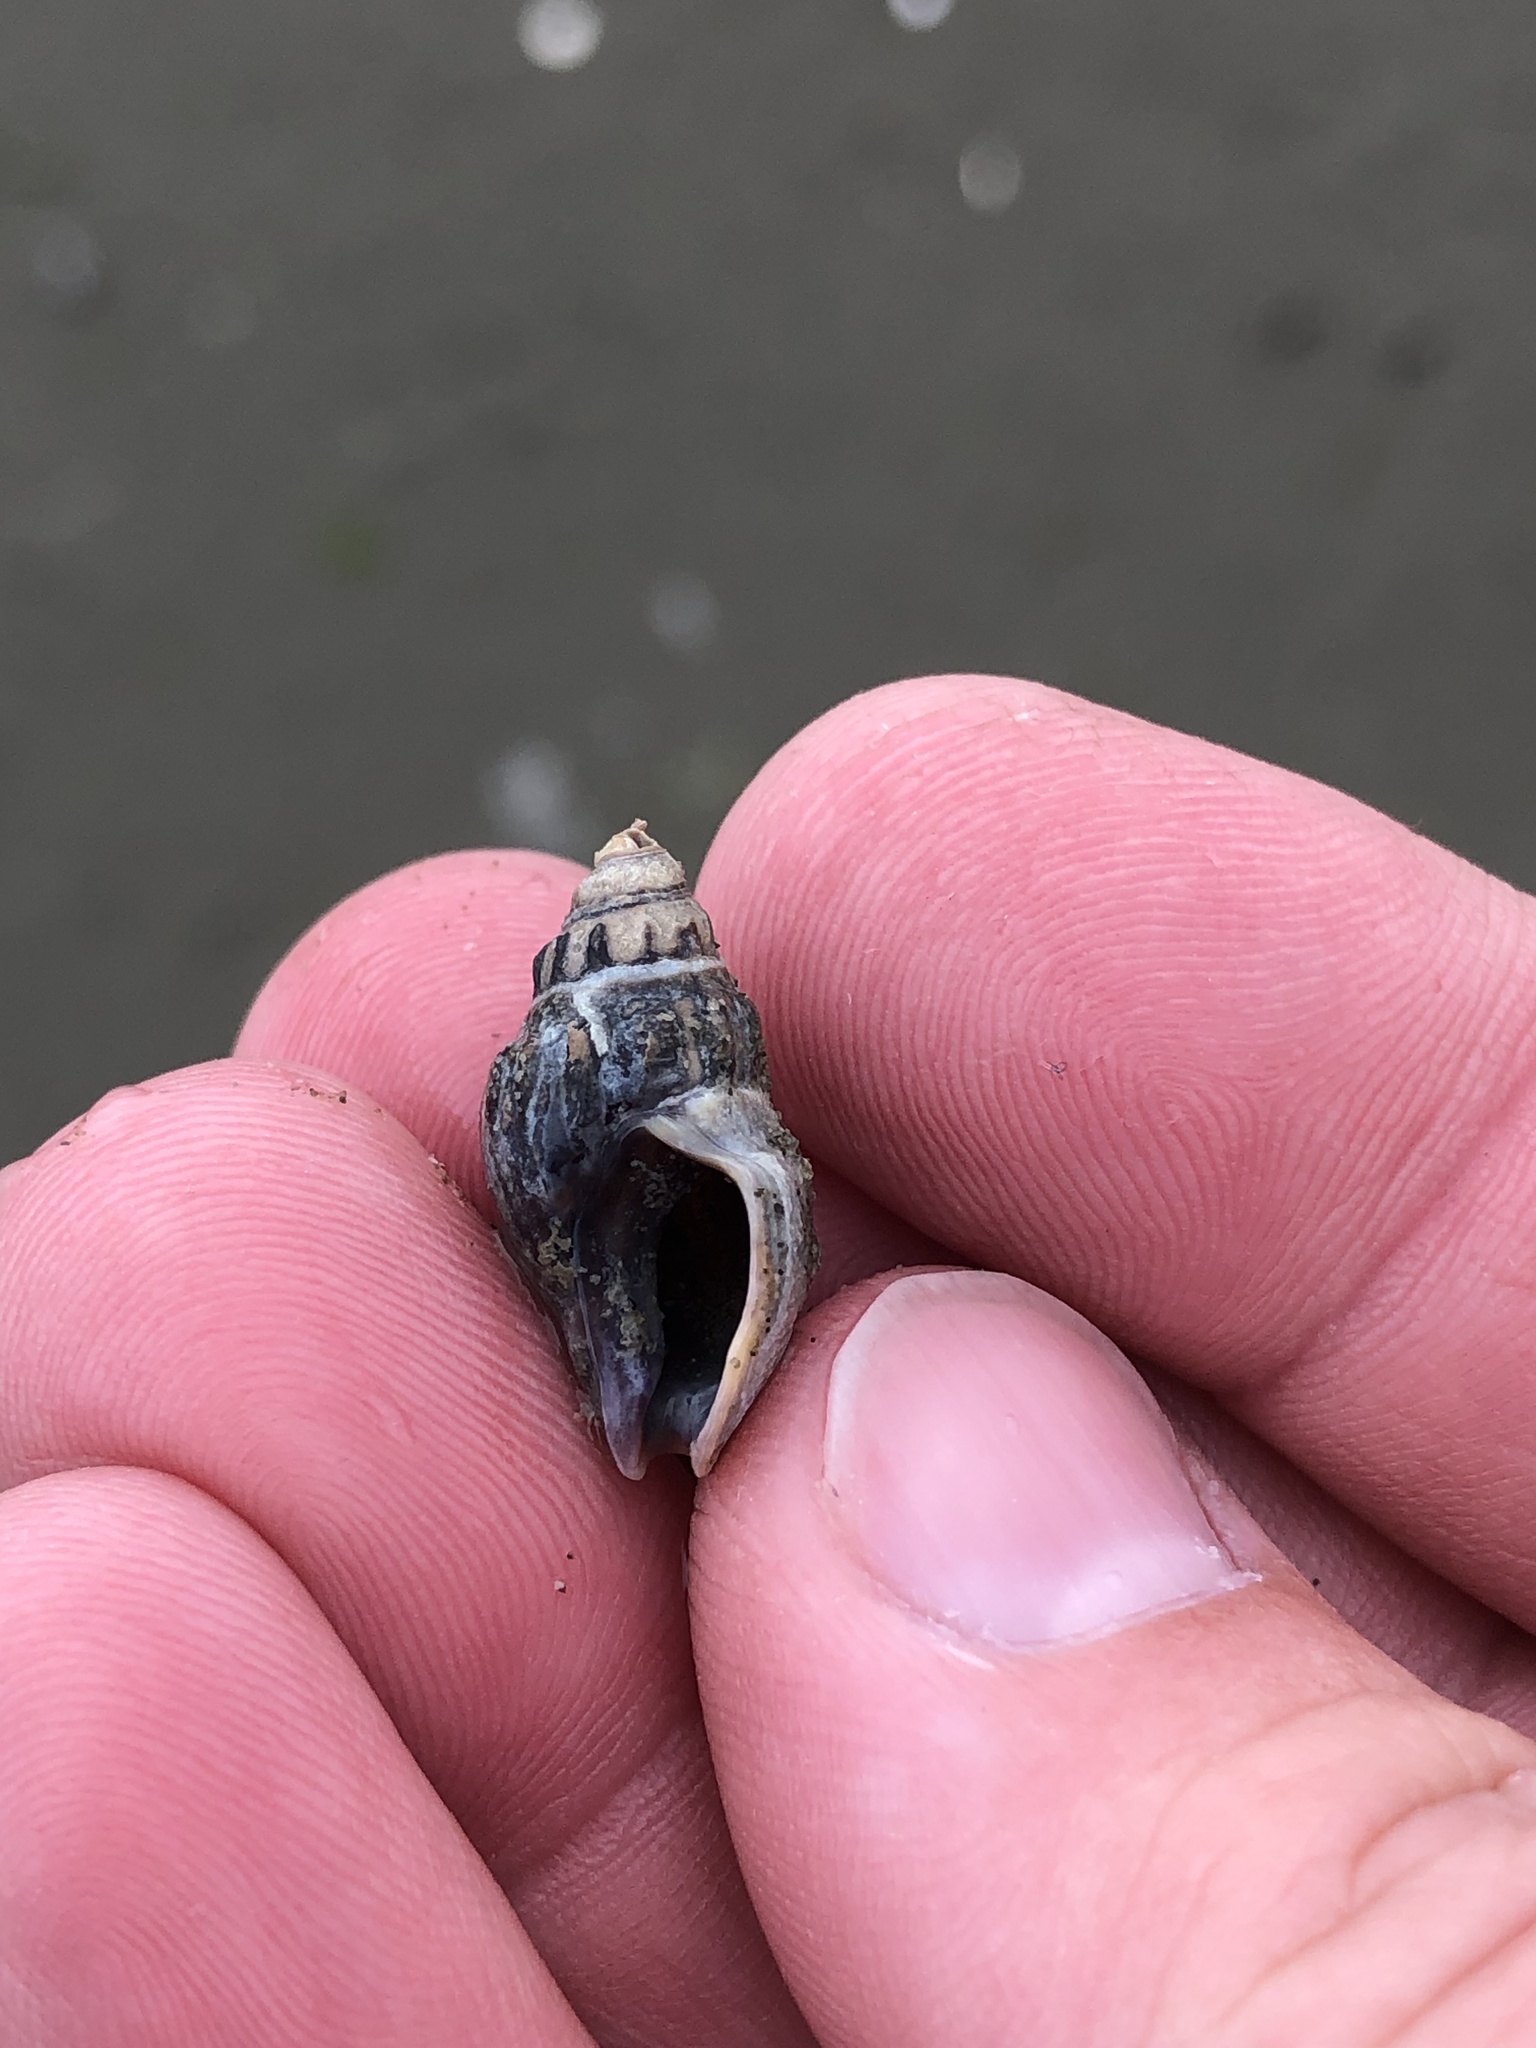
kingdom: Animalia
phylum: Mollusca
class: Gastropoda
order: Neogastropoda
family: Cominellidae
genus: Cominella
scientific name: Cominella glandiformis
